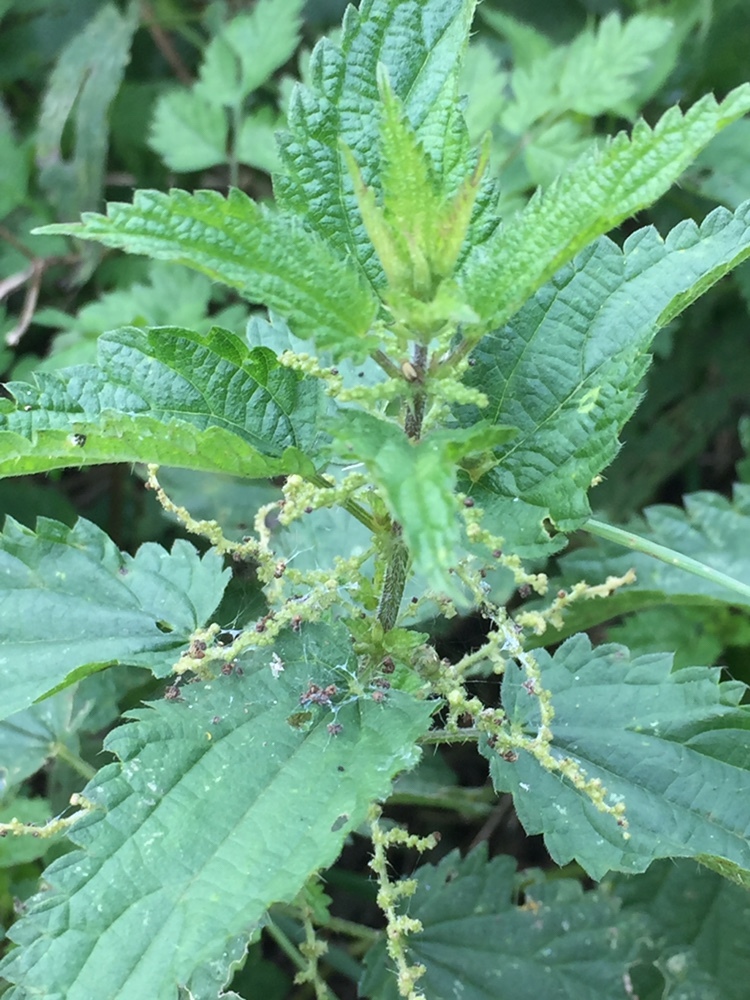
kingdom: Plantae
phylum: Tracheophyta
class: Magnoliopsida
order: Rosales
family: Urticaceae
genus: Urtica
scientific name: Urtica dioica
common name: Common nettle
